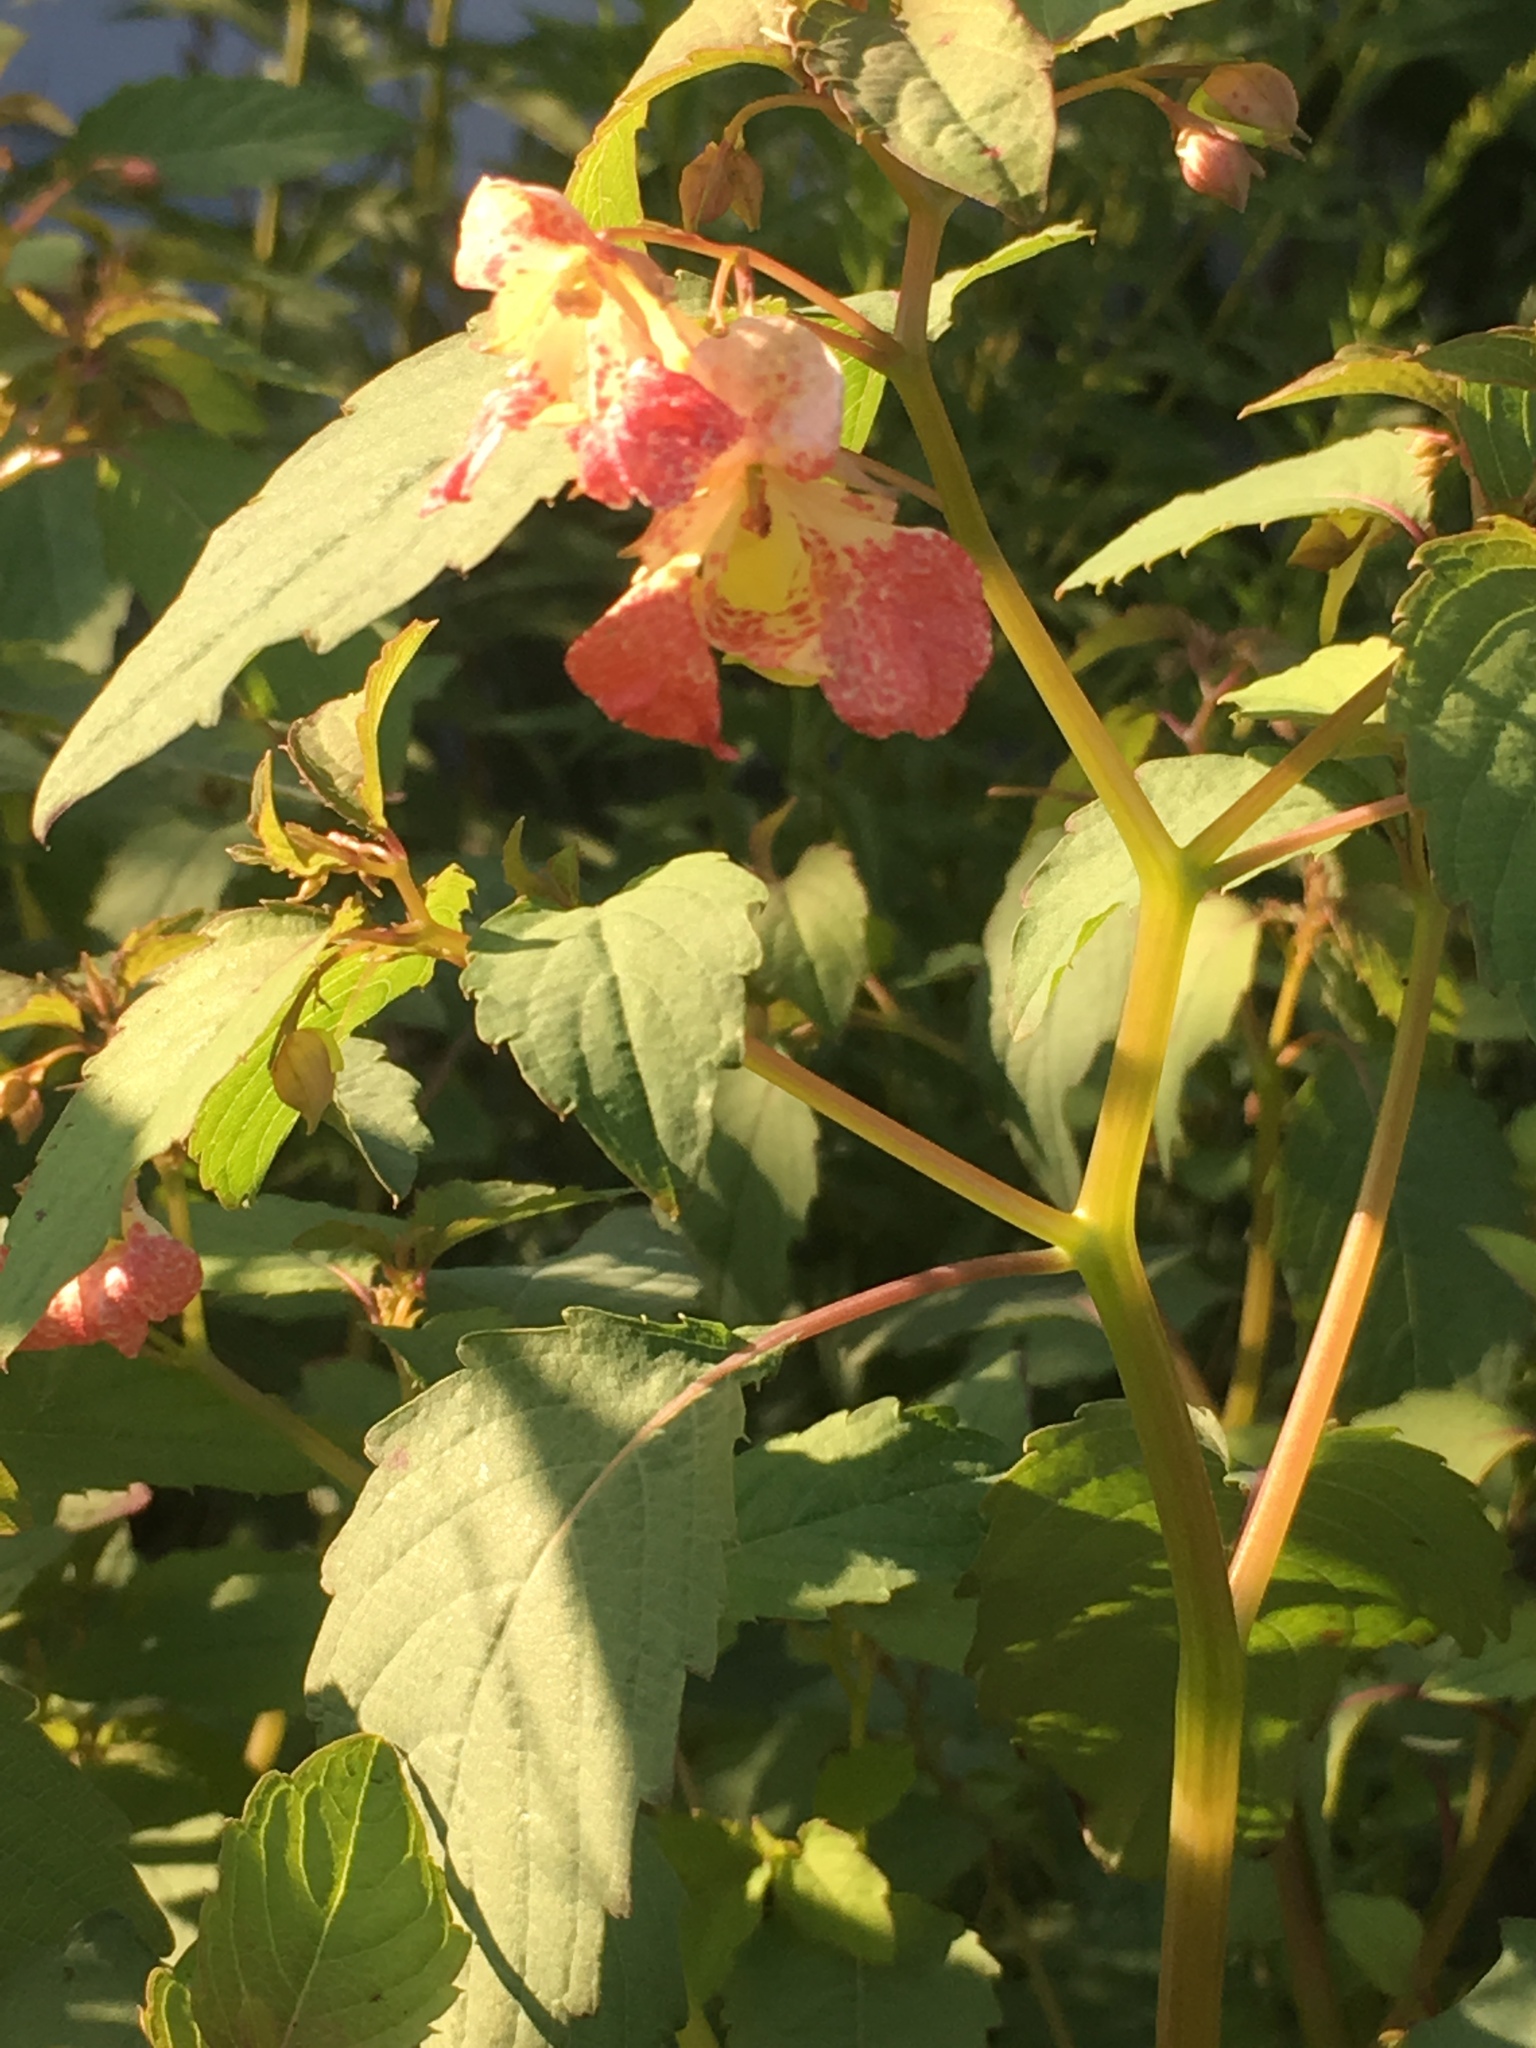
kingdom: Plantae
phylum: Tracheophyta
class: Magnoliopsida
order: Ericales
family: Balsaminaceae
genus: Impatiens
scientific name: Impatiens capensis
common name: Orange balsam
